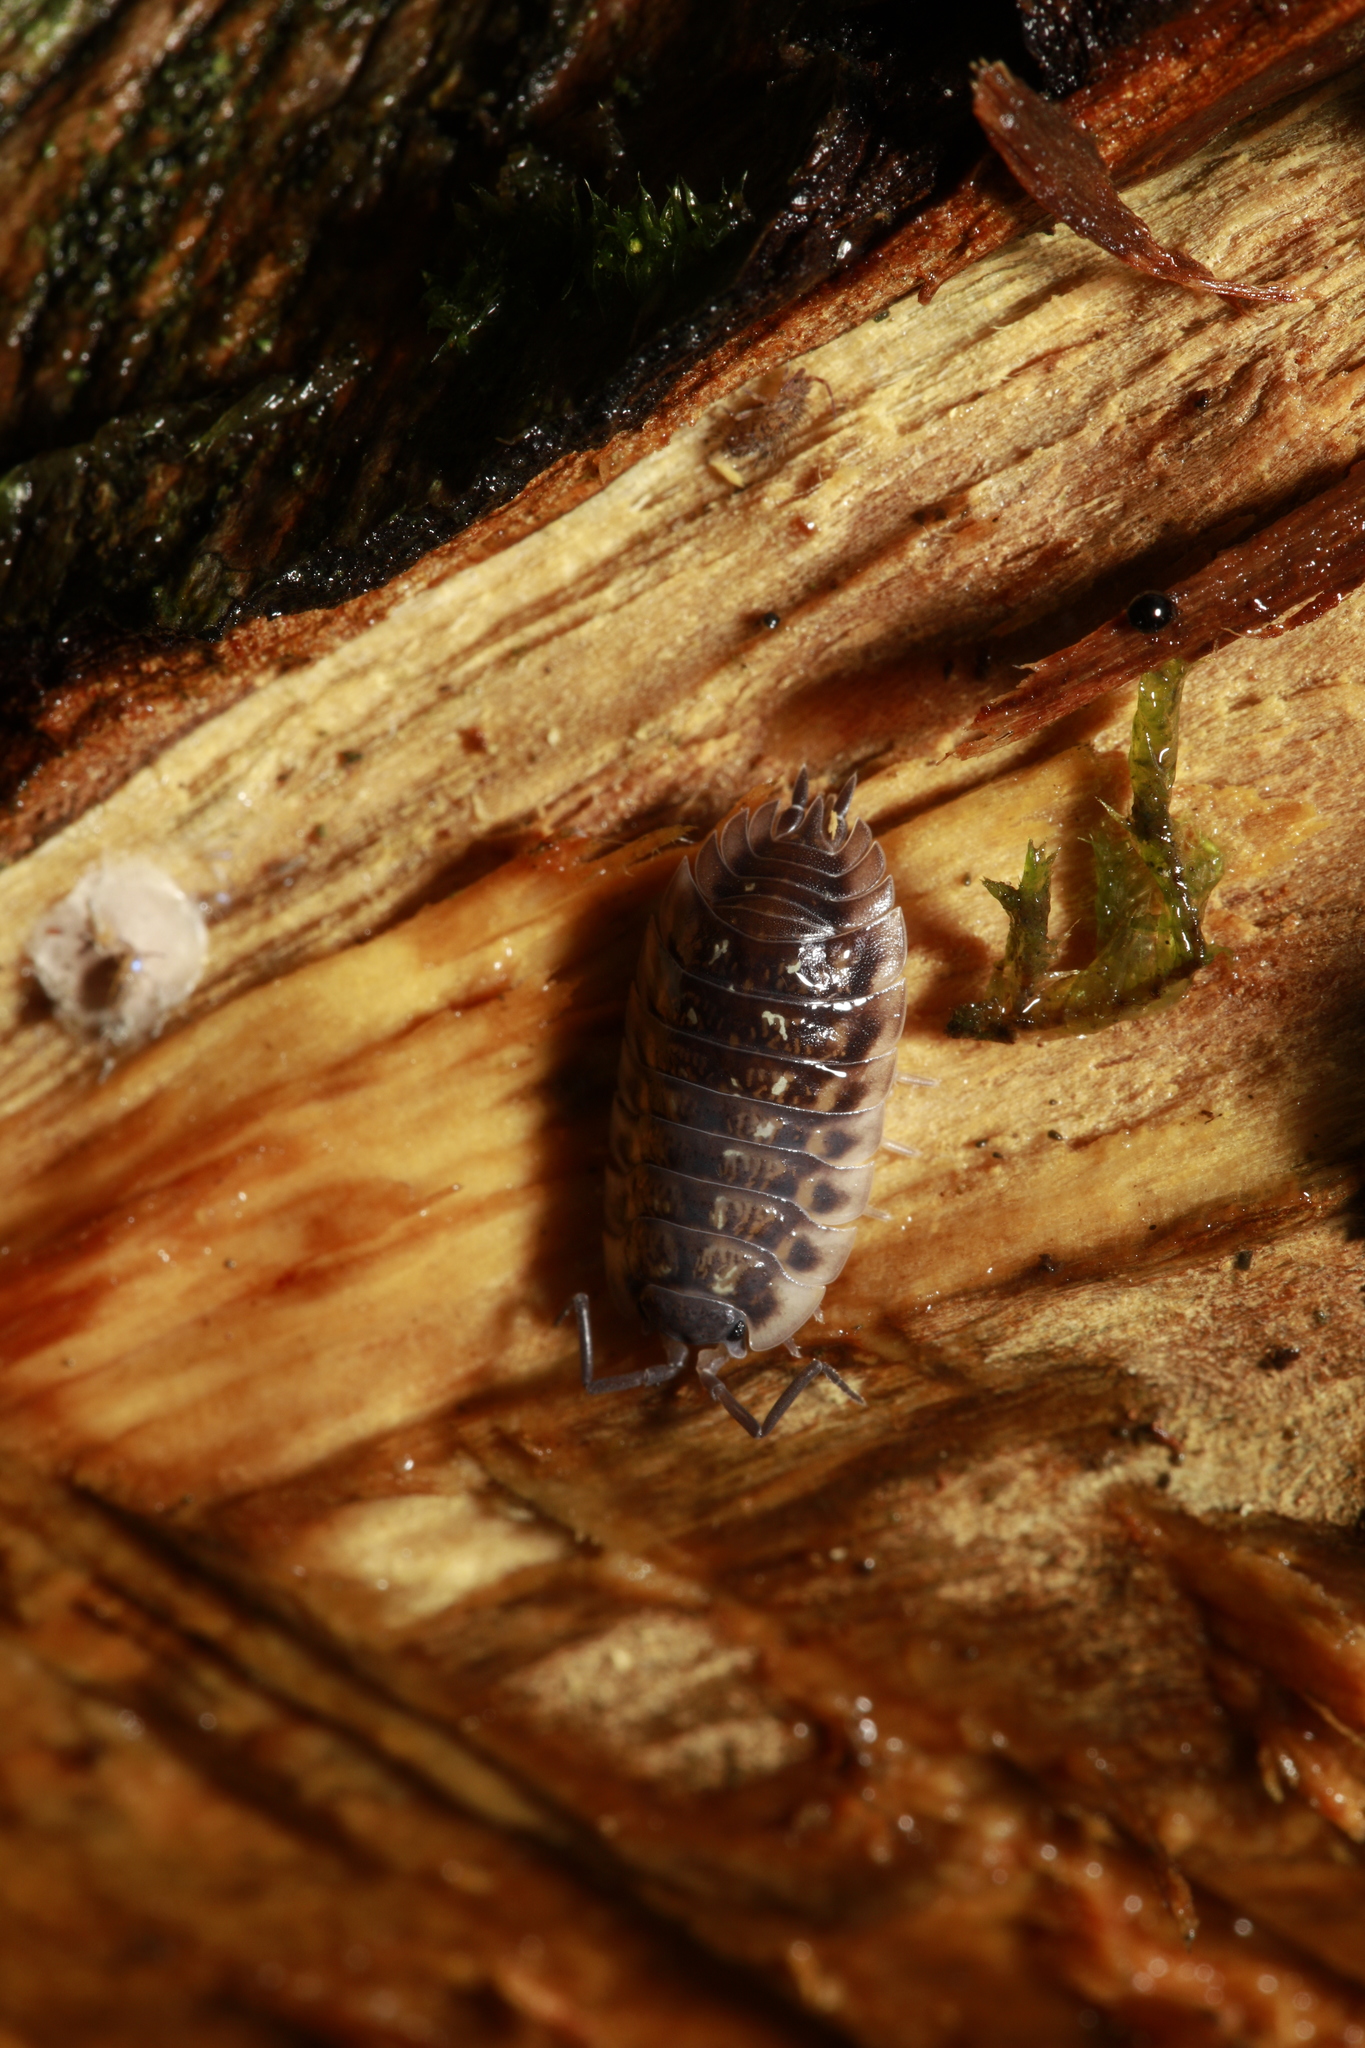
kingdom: Animalia
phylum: Arthropoda
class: Malacostraca
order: Isopoda
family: Oniscidae
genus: Oniscus
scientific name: Oniscus asellus
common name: Common shiny woodlouse
